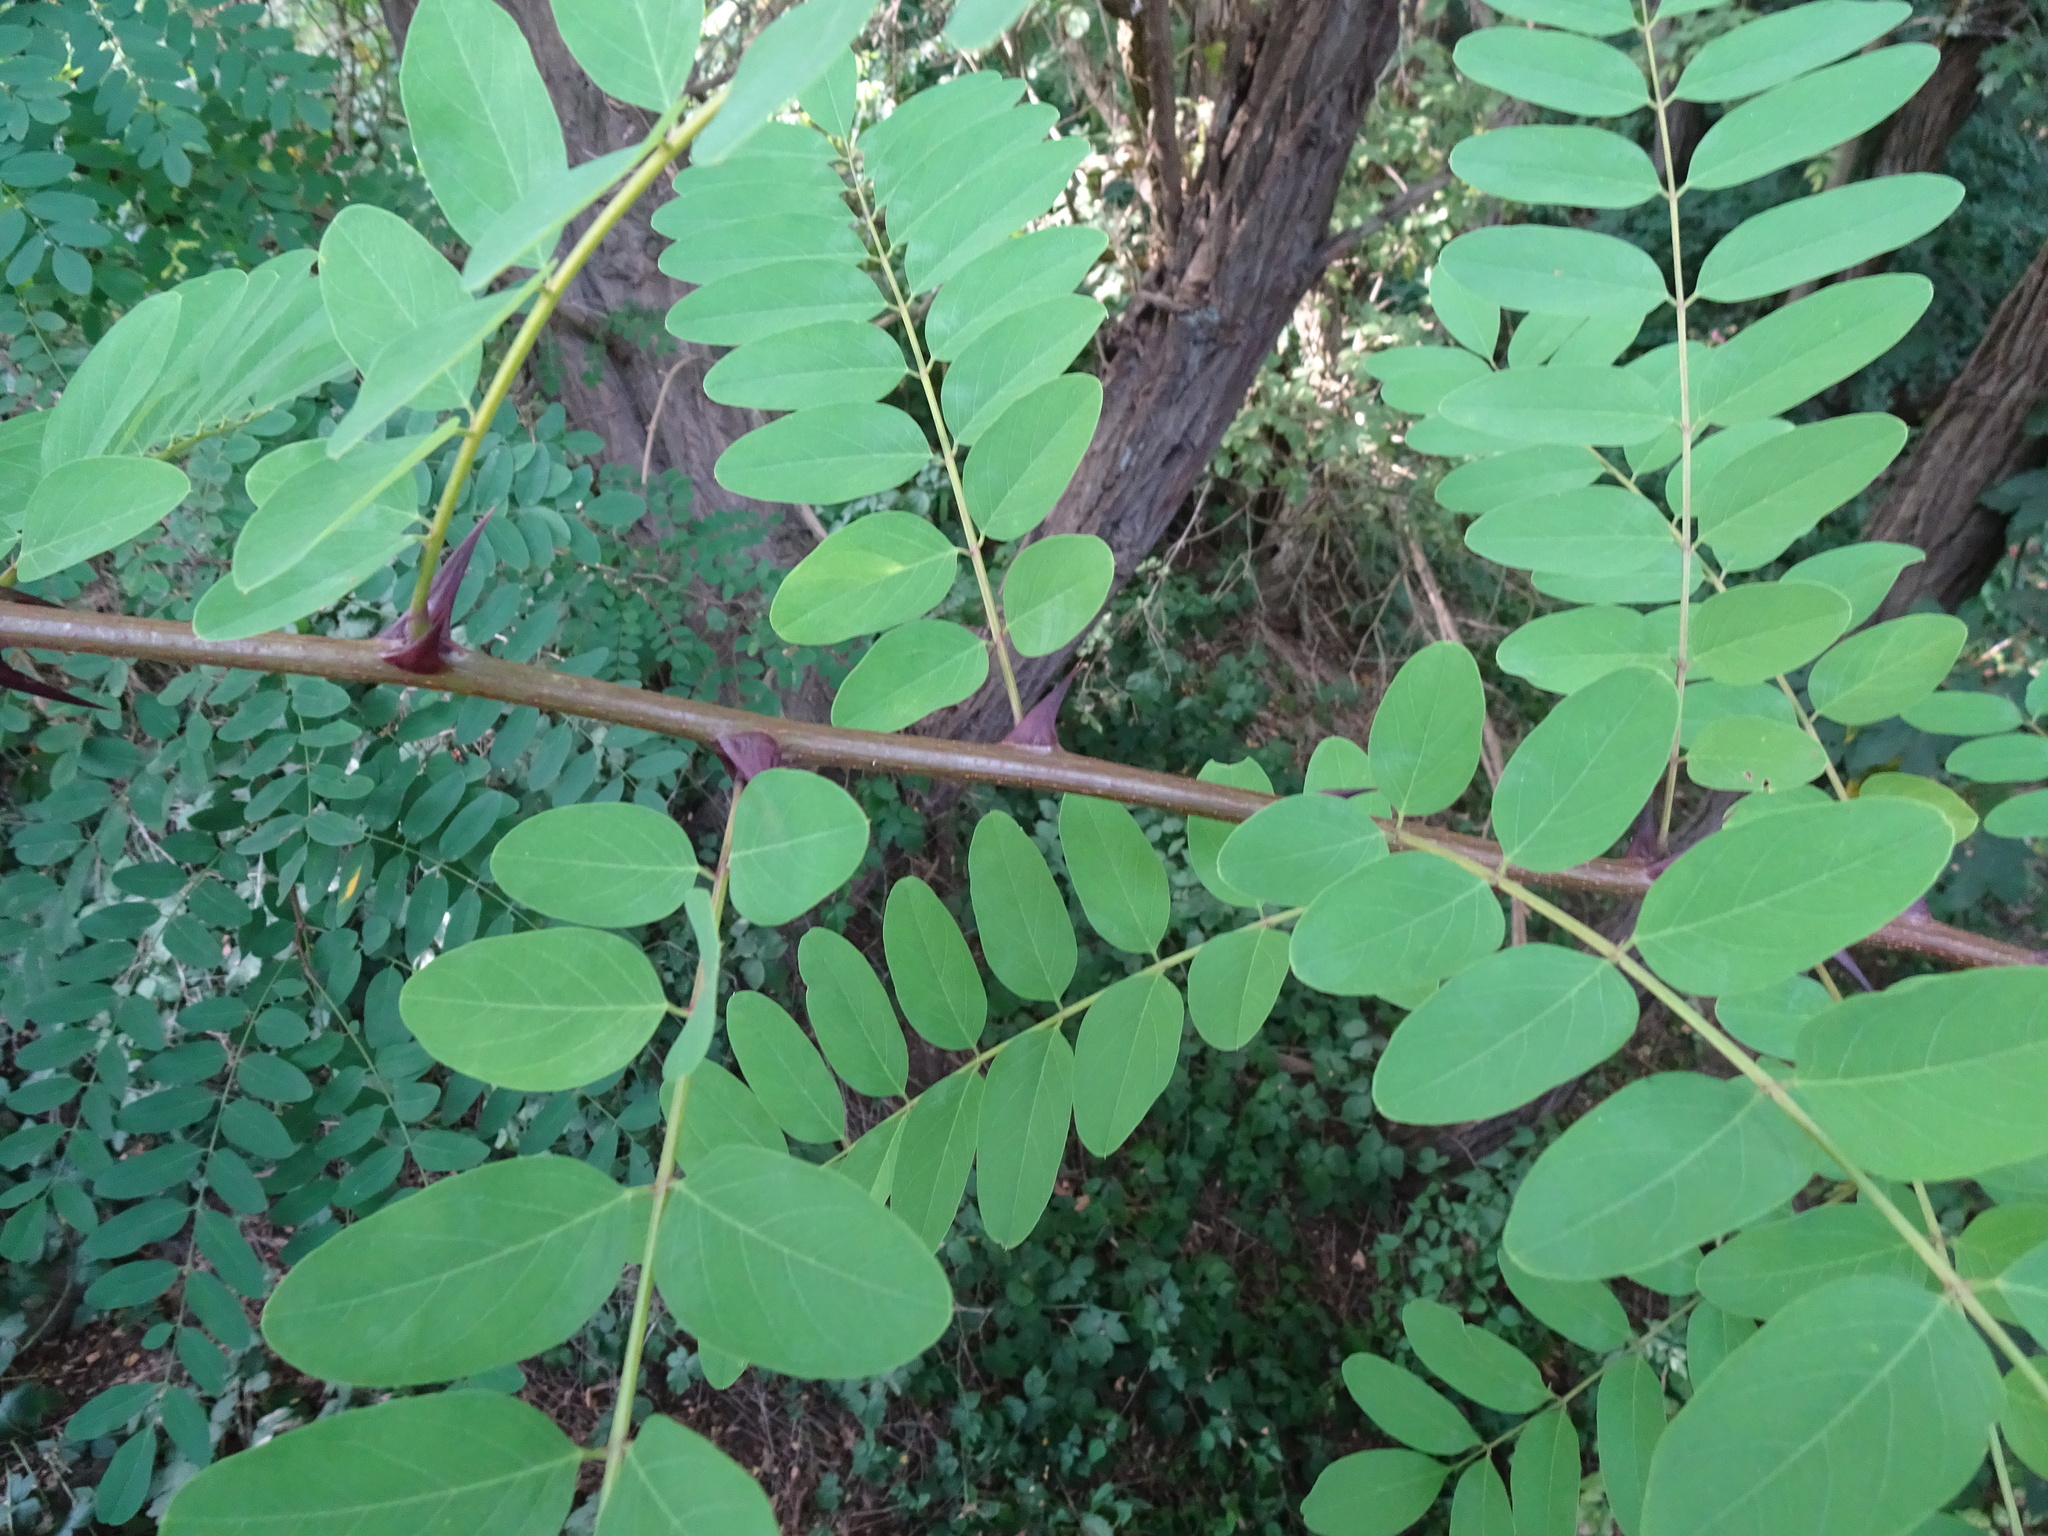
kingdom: Plantae
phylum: Tracheophyta
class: Magnoliopsida
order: Fabales
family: Fabaceae
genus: Robinia
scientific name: Robinia pseudoacacia
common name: Black locust
